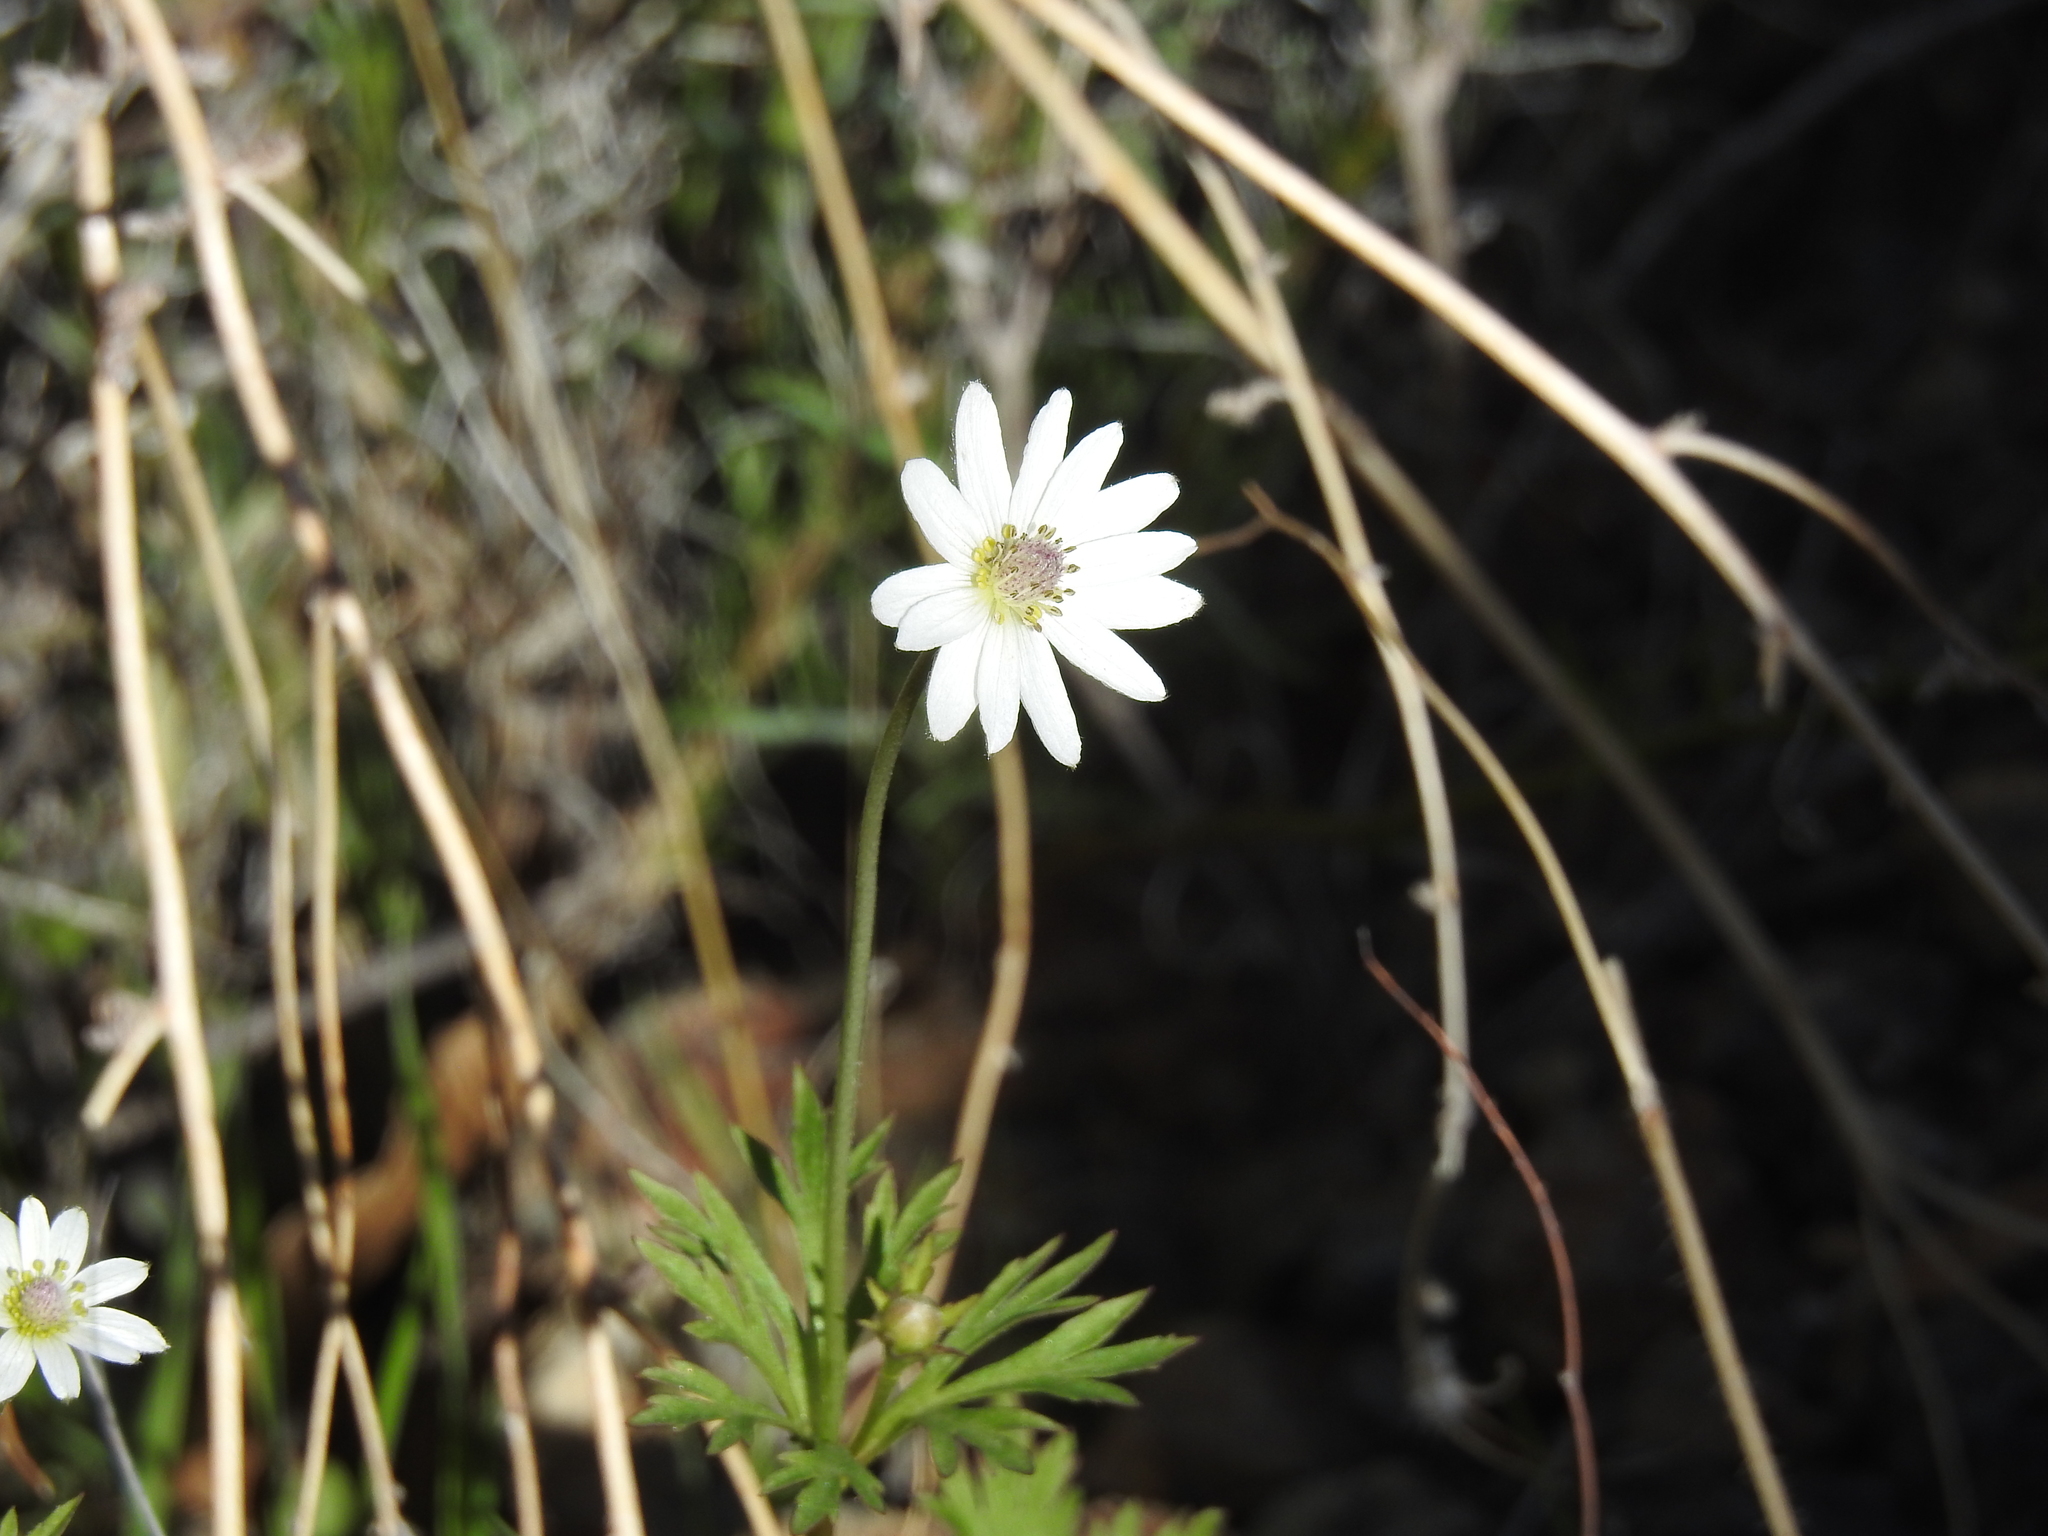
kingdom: Plantae
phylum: Tracheophyta
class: Magnoliopsida
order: Ranunculales
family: Ranunculaceae
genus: Anemone
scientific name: Anemone tuberosa
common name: Desert anemone
